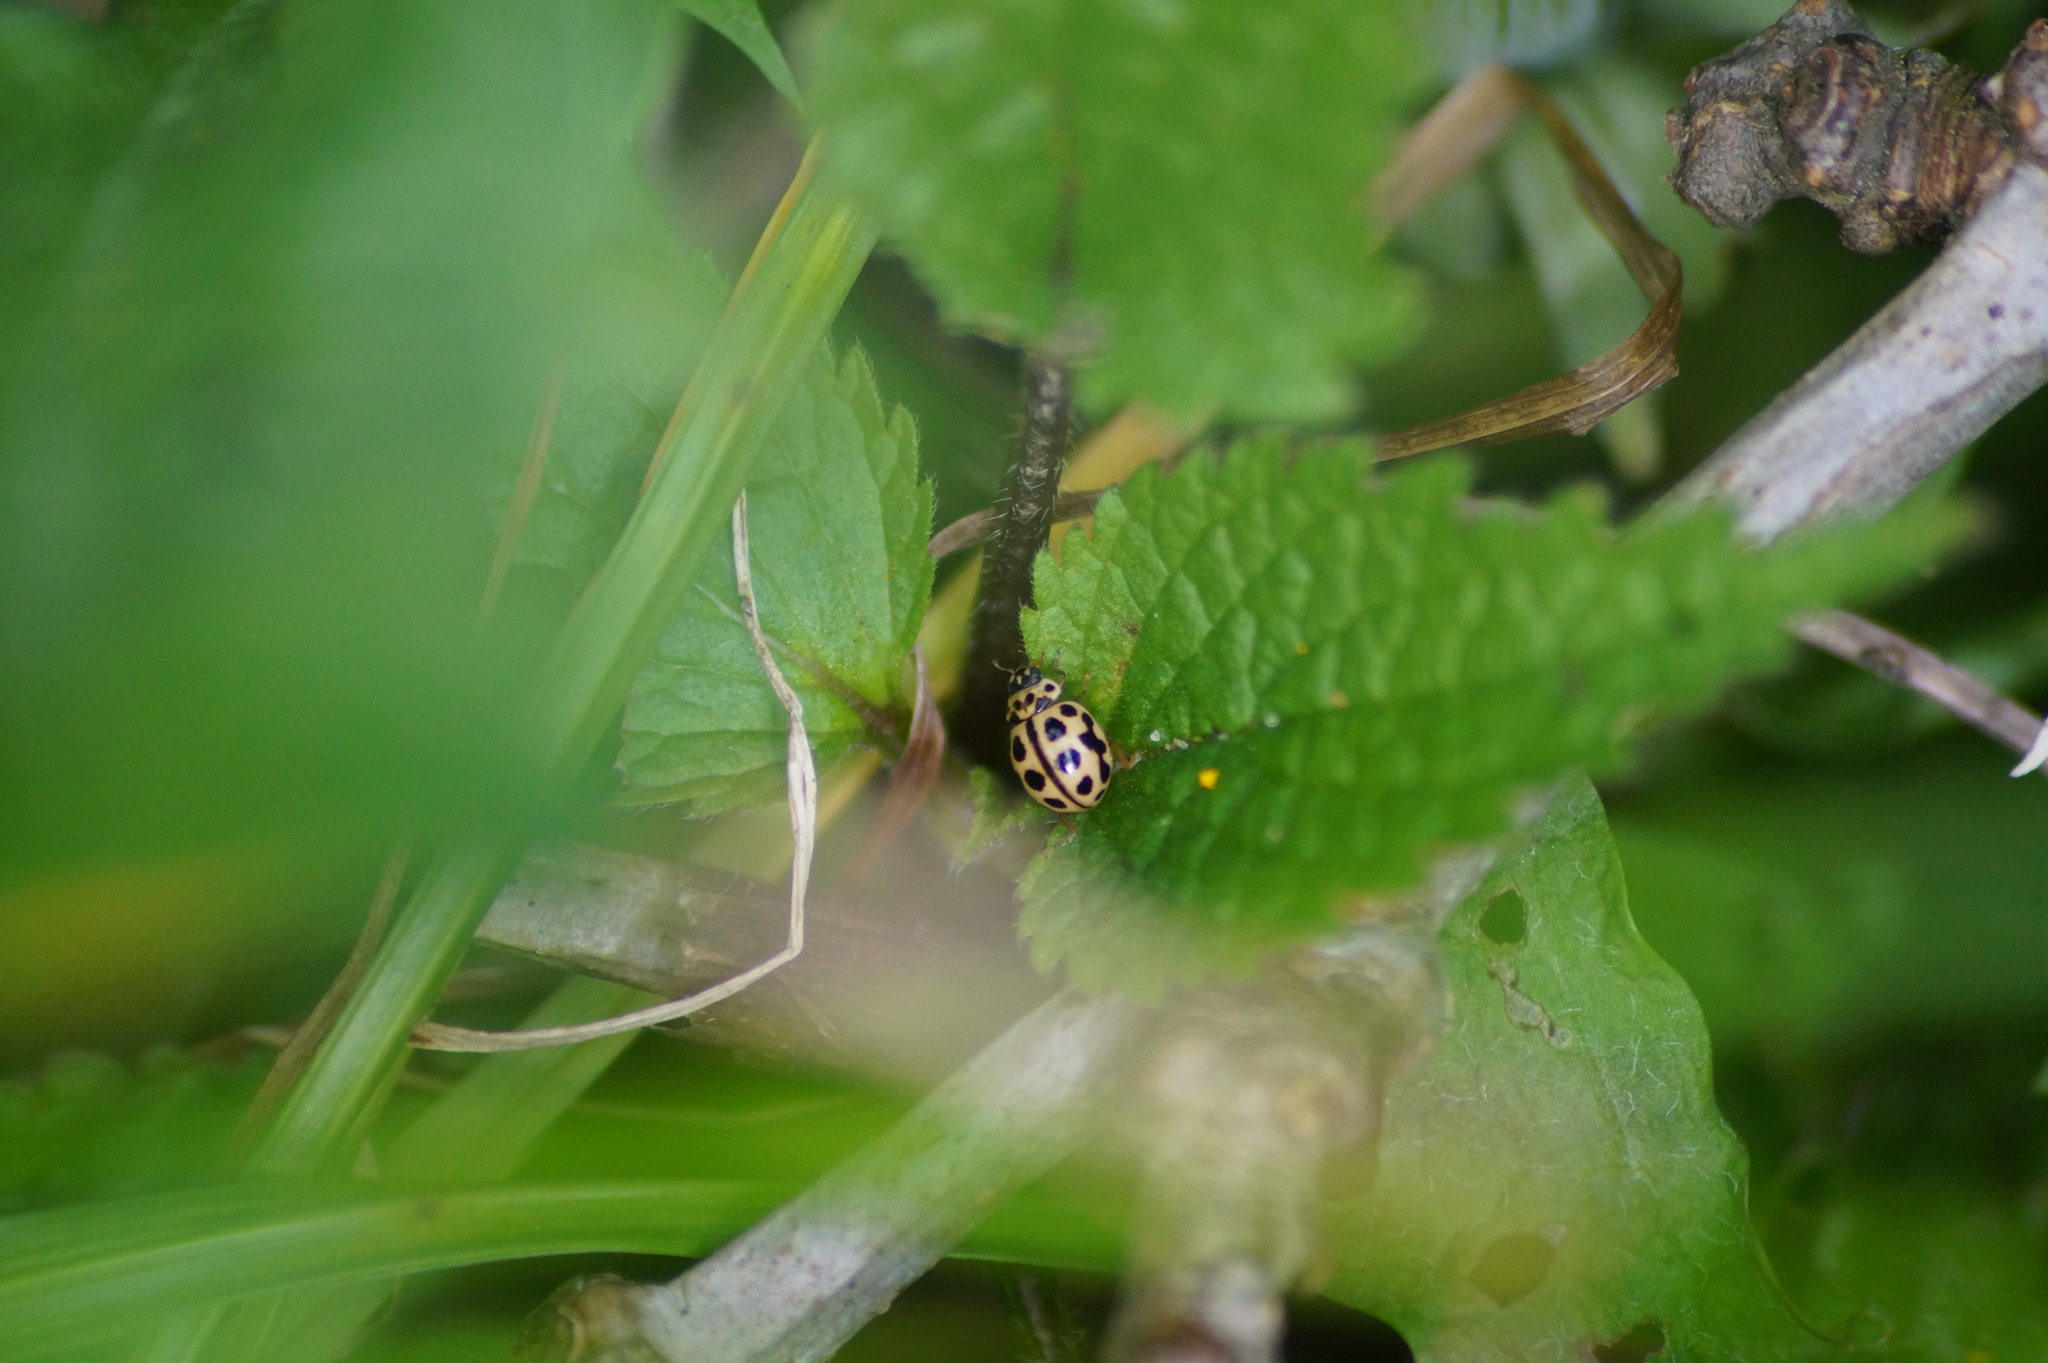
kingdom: Animalia
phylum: Arthropoda
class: Insecta
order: Coleoptera
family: Coccinellidae
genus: Tytthaspis
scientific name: Tytthaspis sedecimpunctata
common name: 16-spot ladybird
